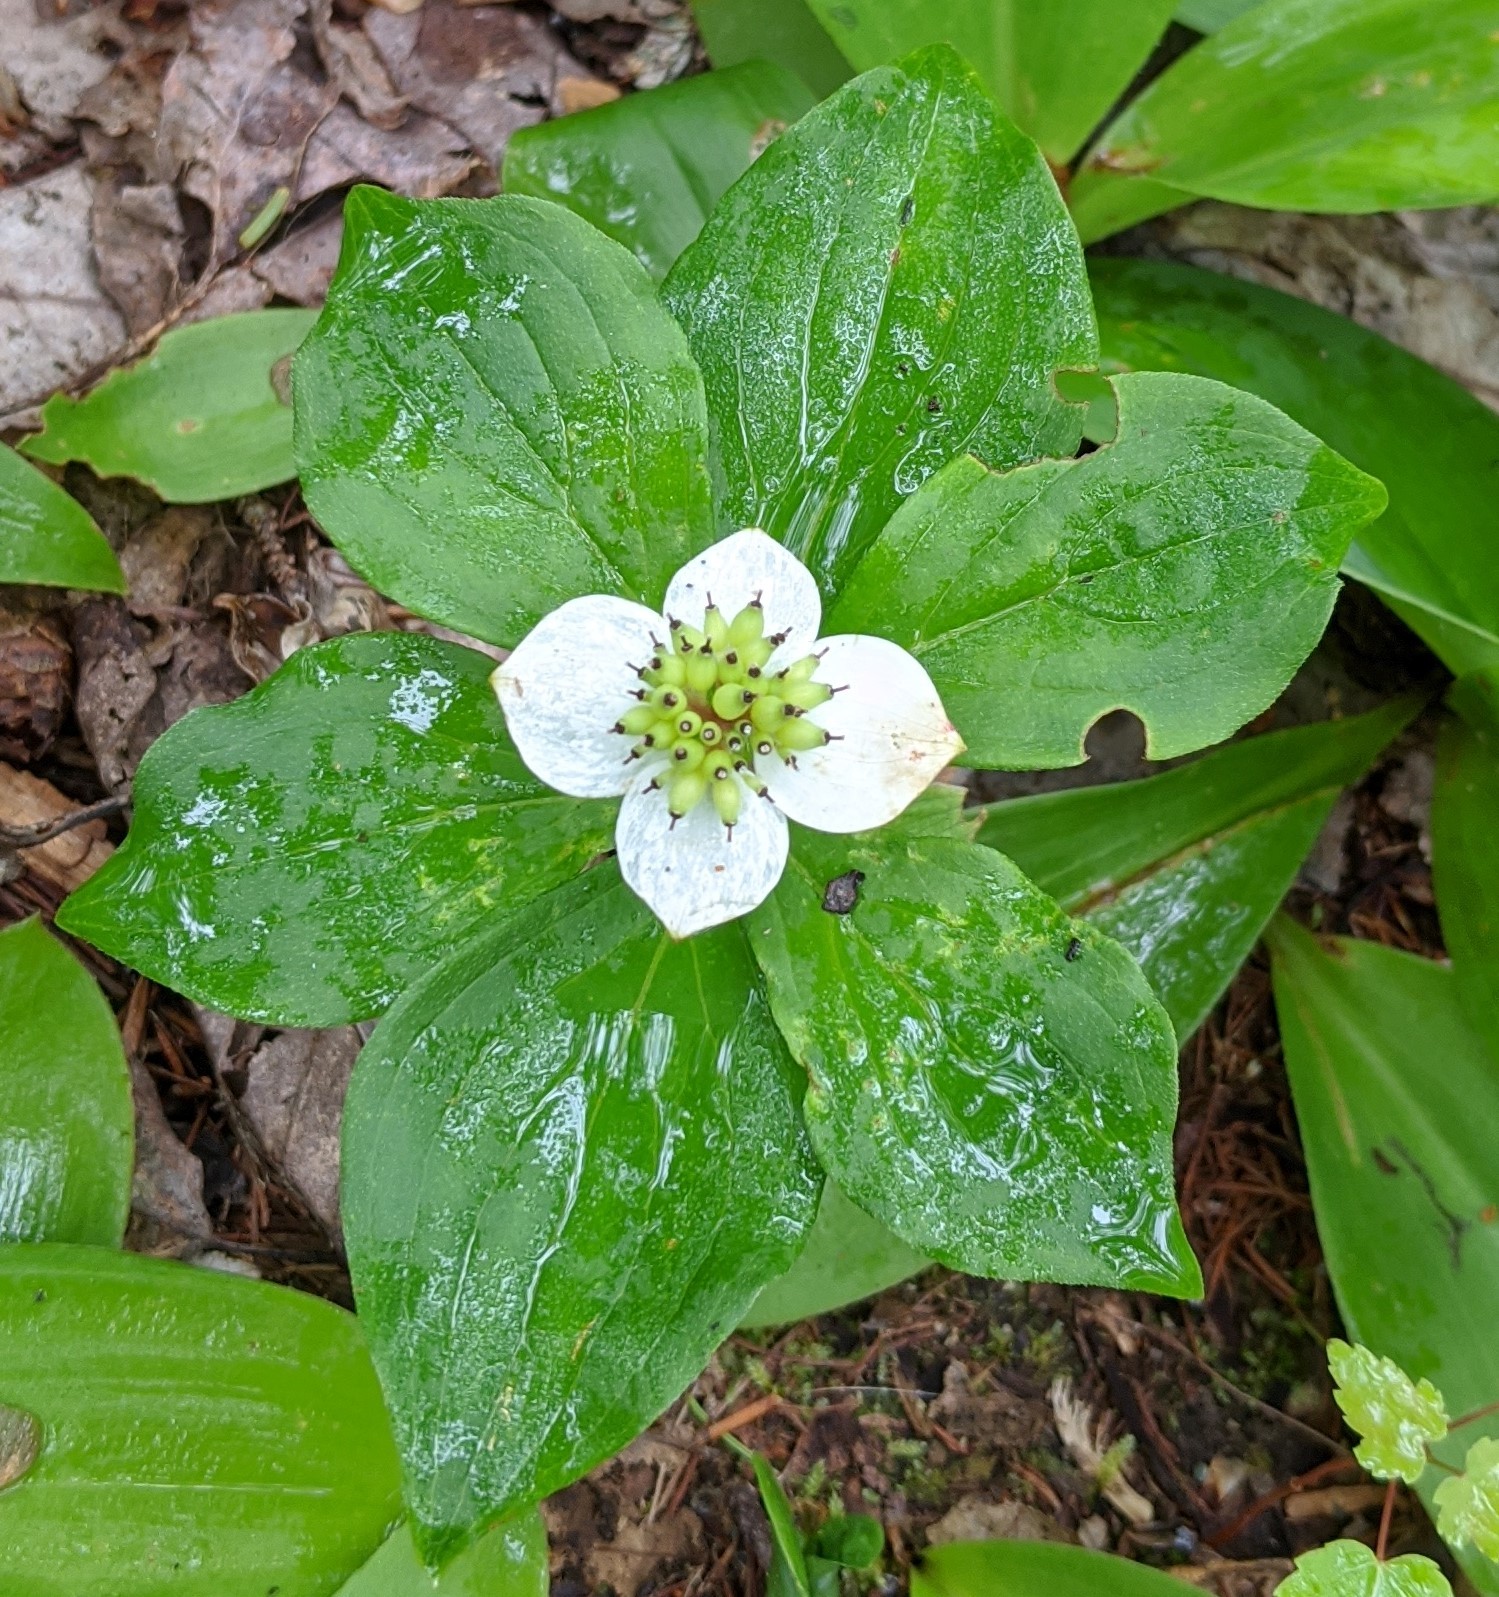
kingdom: Plantae
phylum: Tracheophyta
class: Magnoliopsida
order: Cornales
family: Cornaceae
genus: Cornus
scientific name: Cornus canadensis
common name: Creeping dogwood
